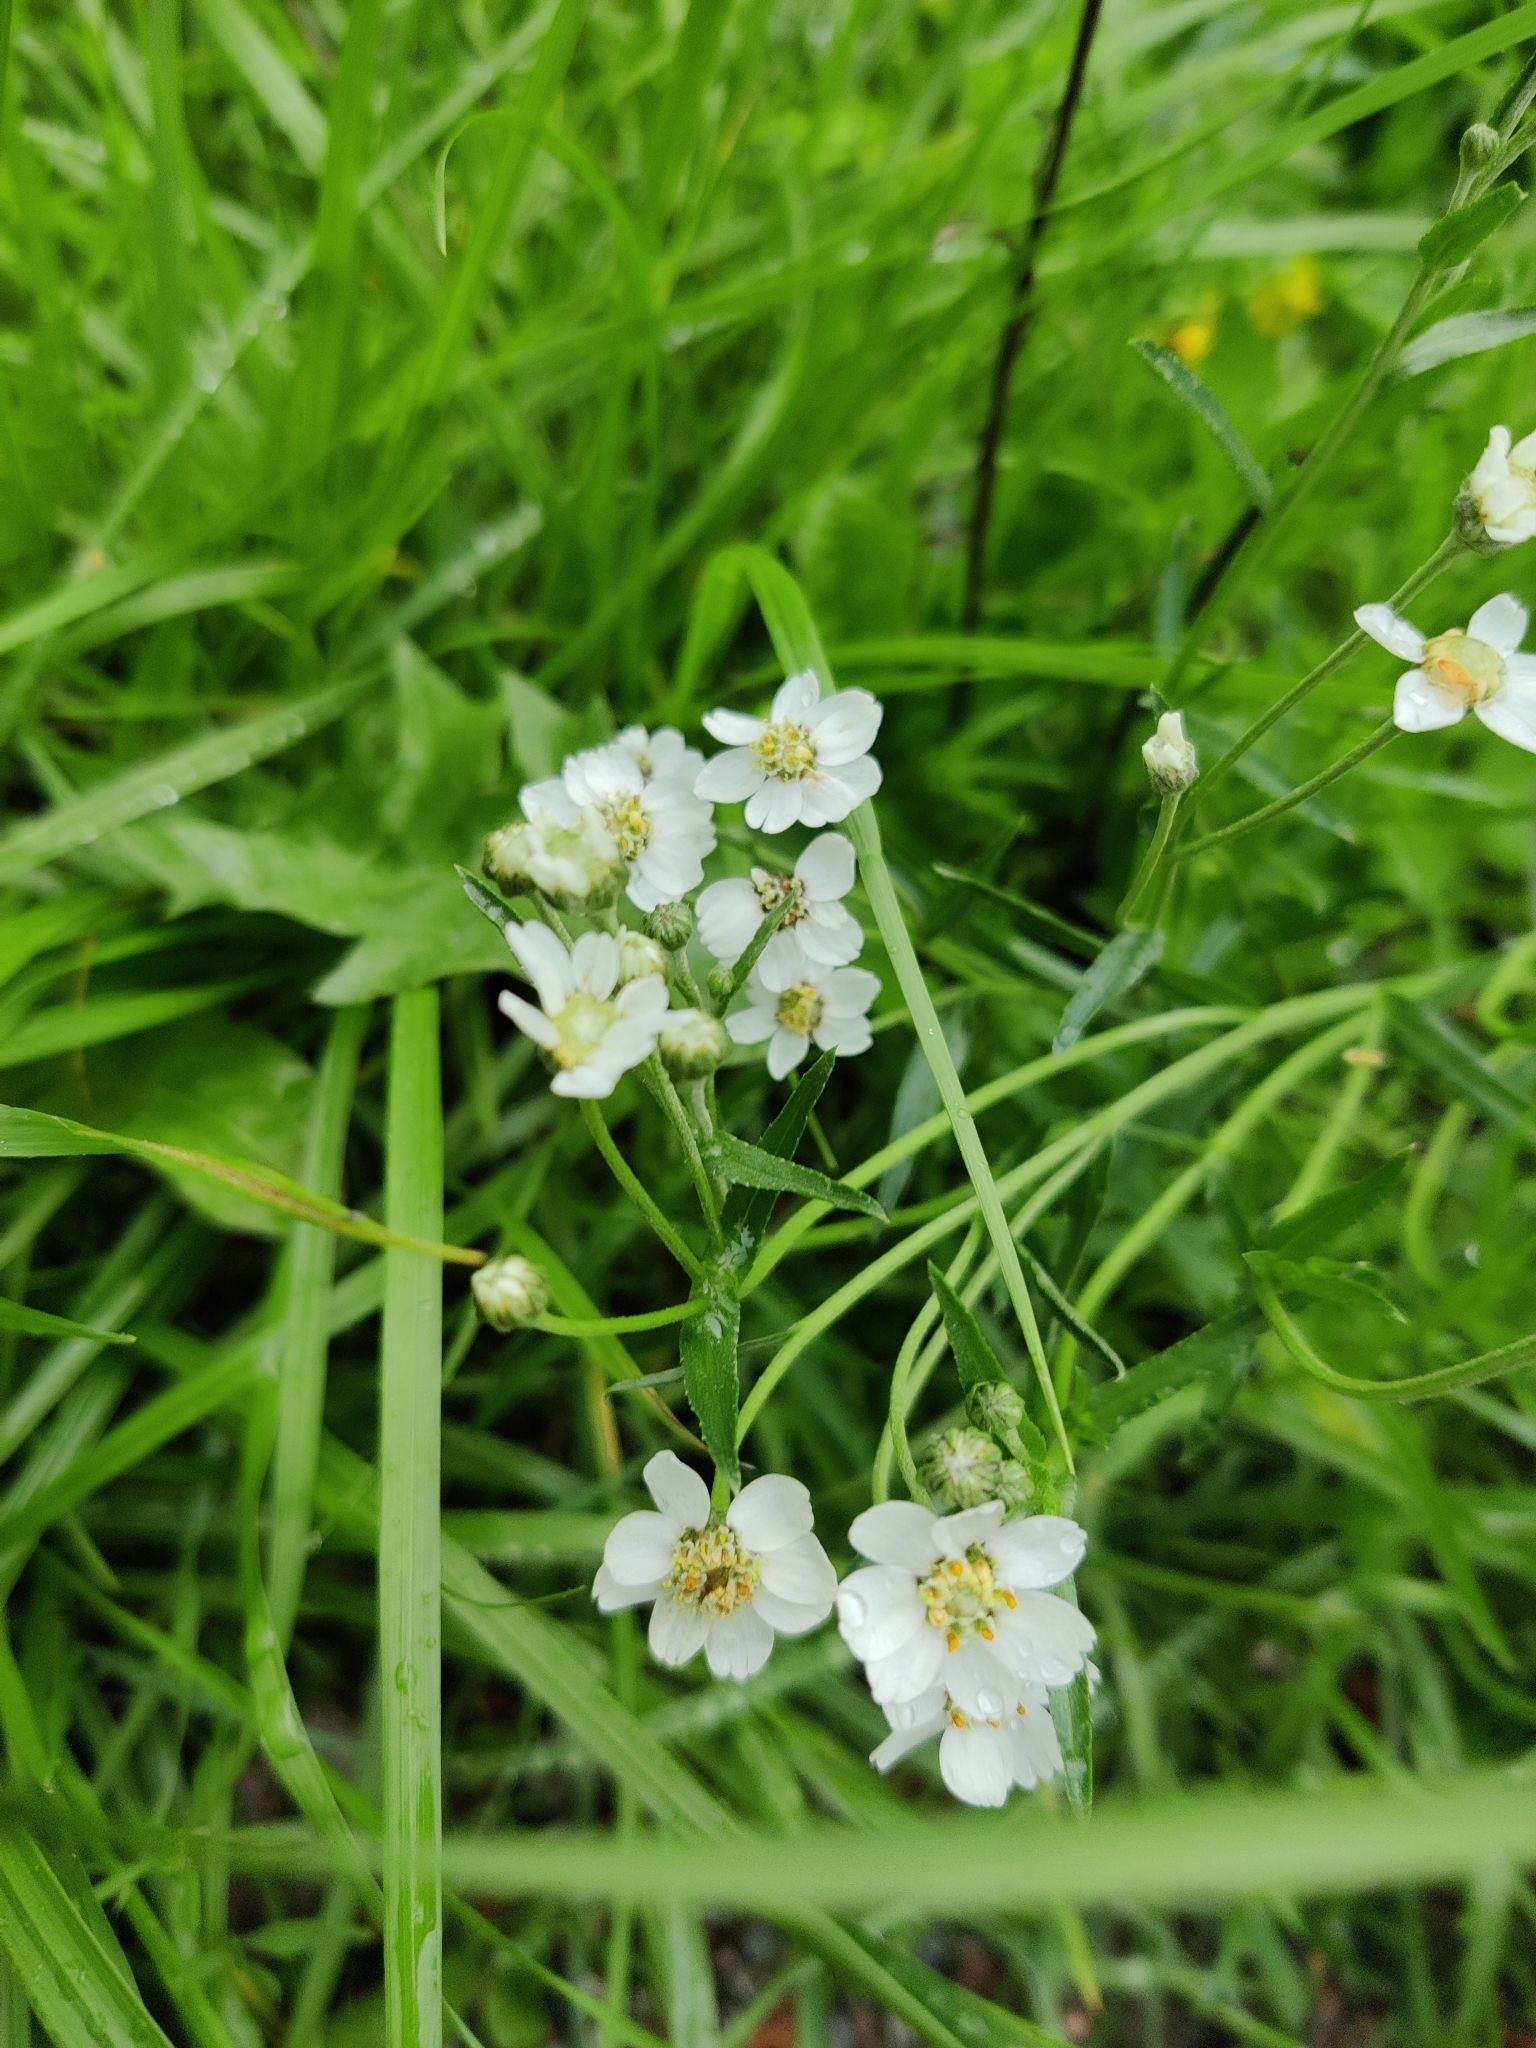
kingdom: Plantae
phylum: Tracheophyta
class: Magnoliopsida
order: Asterales
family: Asteraceae
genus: Achillea
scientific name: Achillea ptarmica
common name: Sneezeweed
